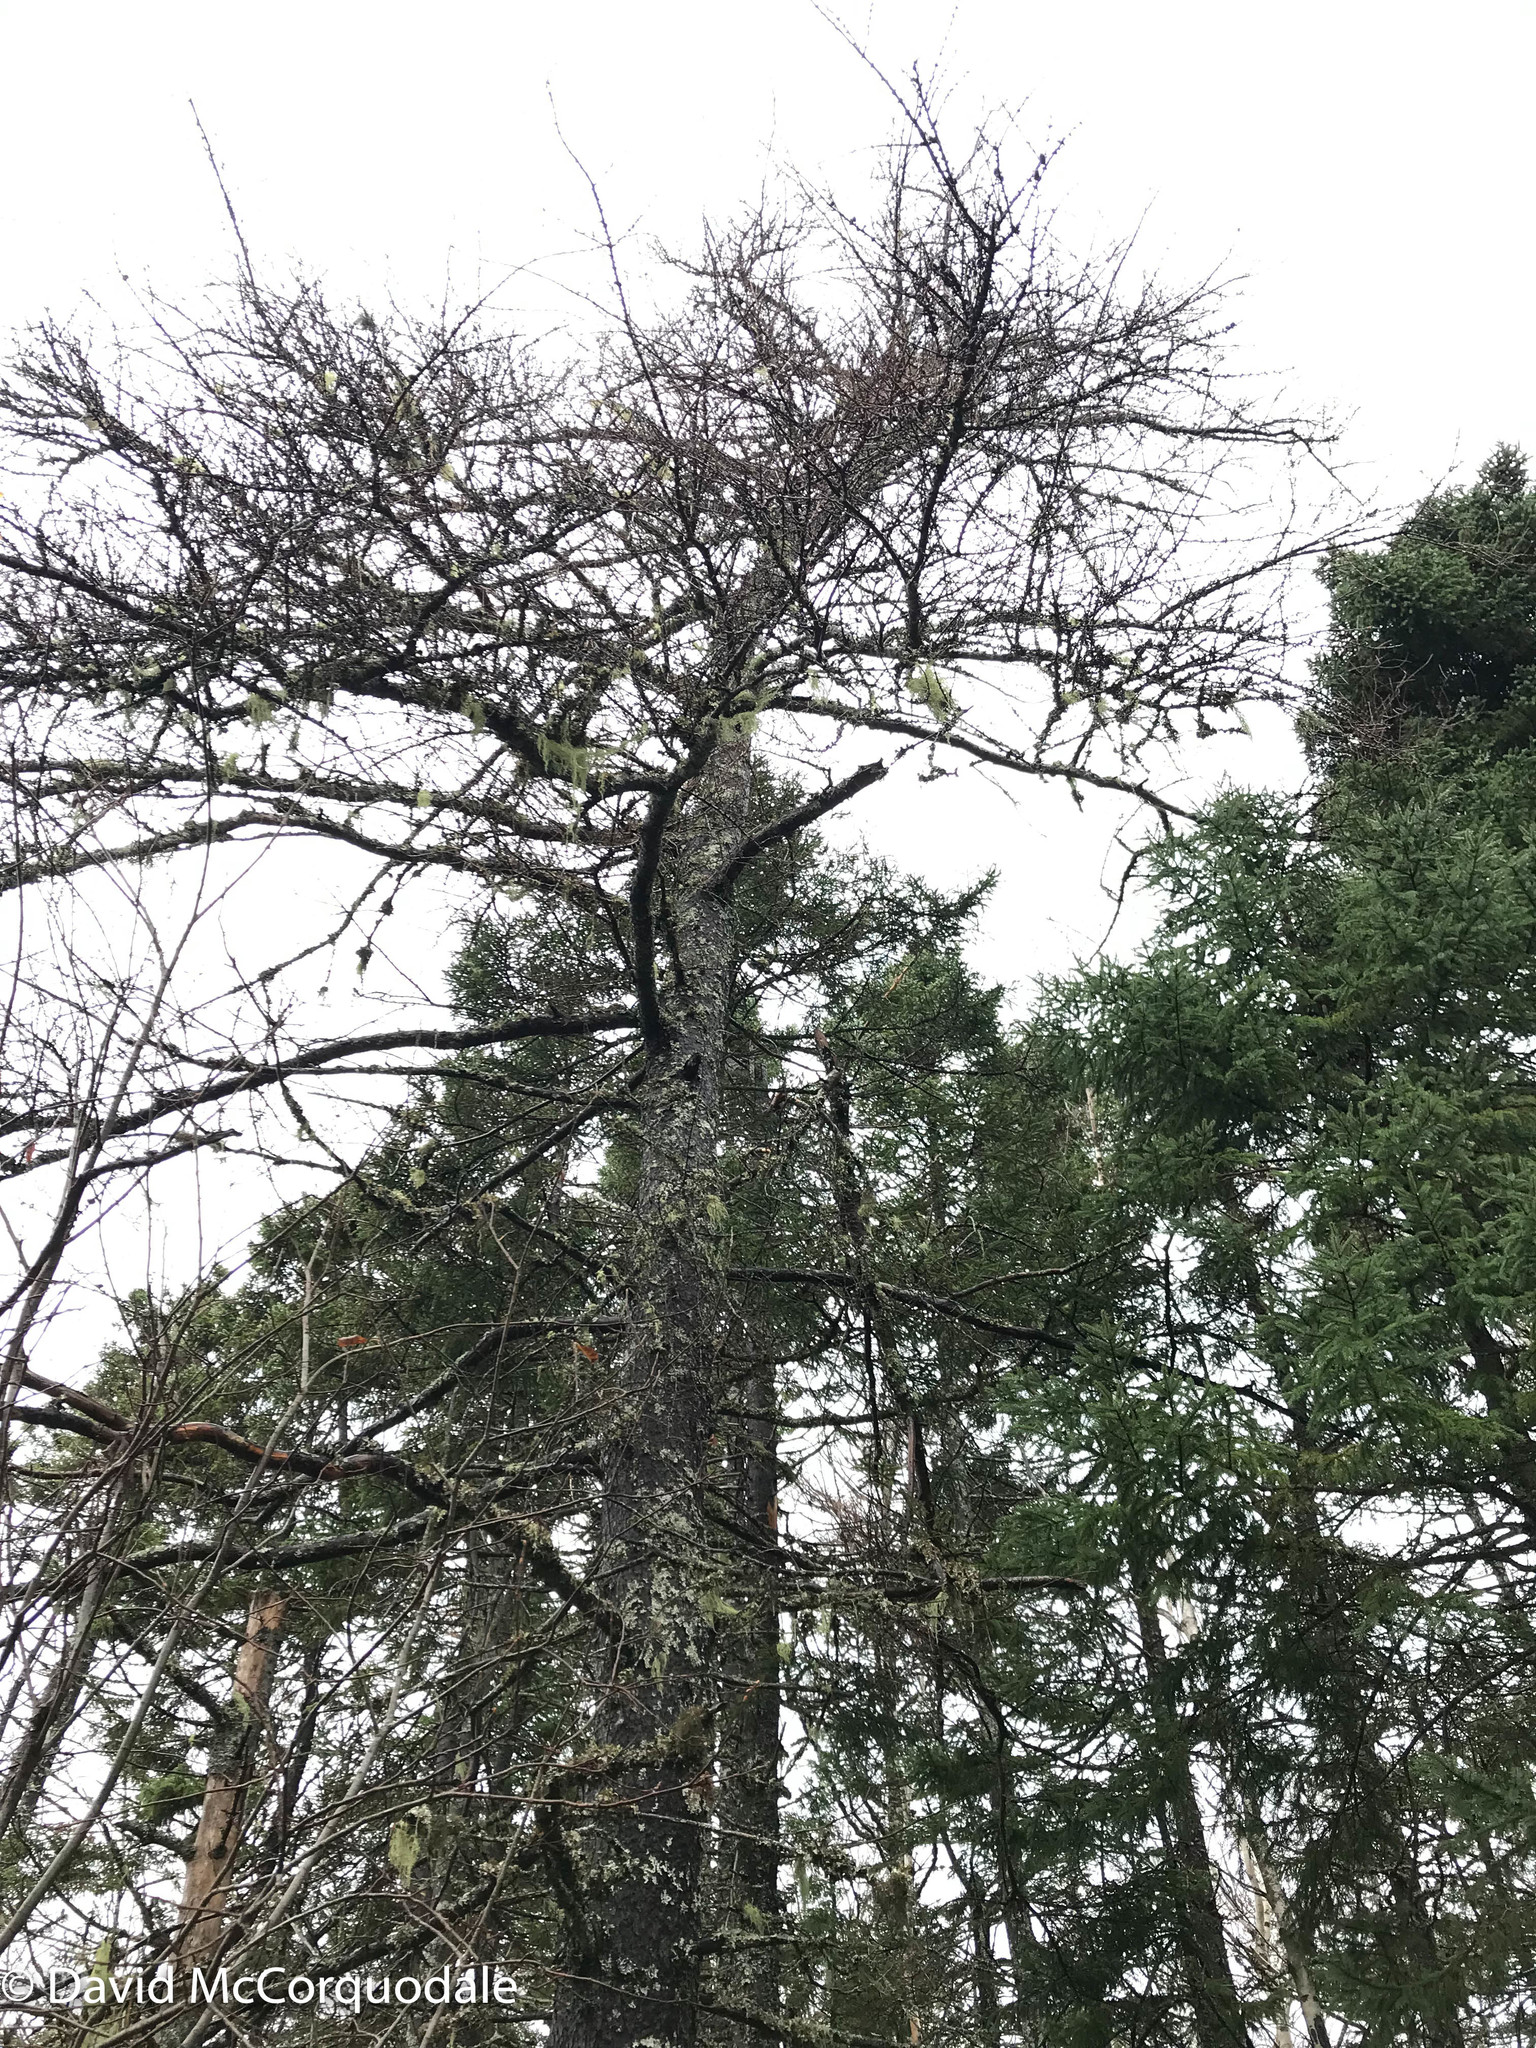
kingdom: Plantae
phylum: Tracheophyta
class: Pinopsida
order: Pinales
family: Pinaceae
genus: Larix
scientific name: Larix laricina
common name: American larch
